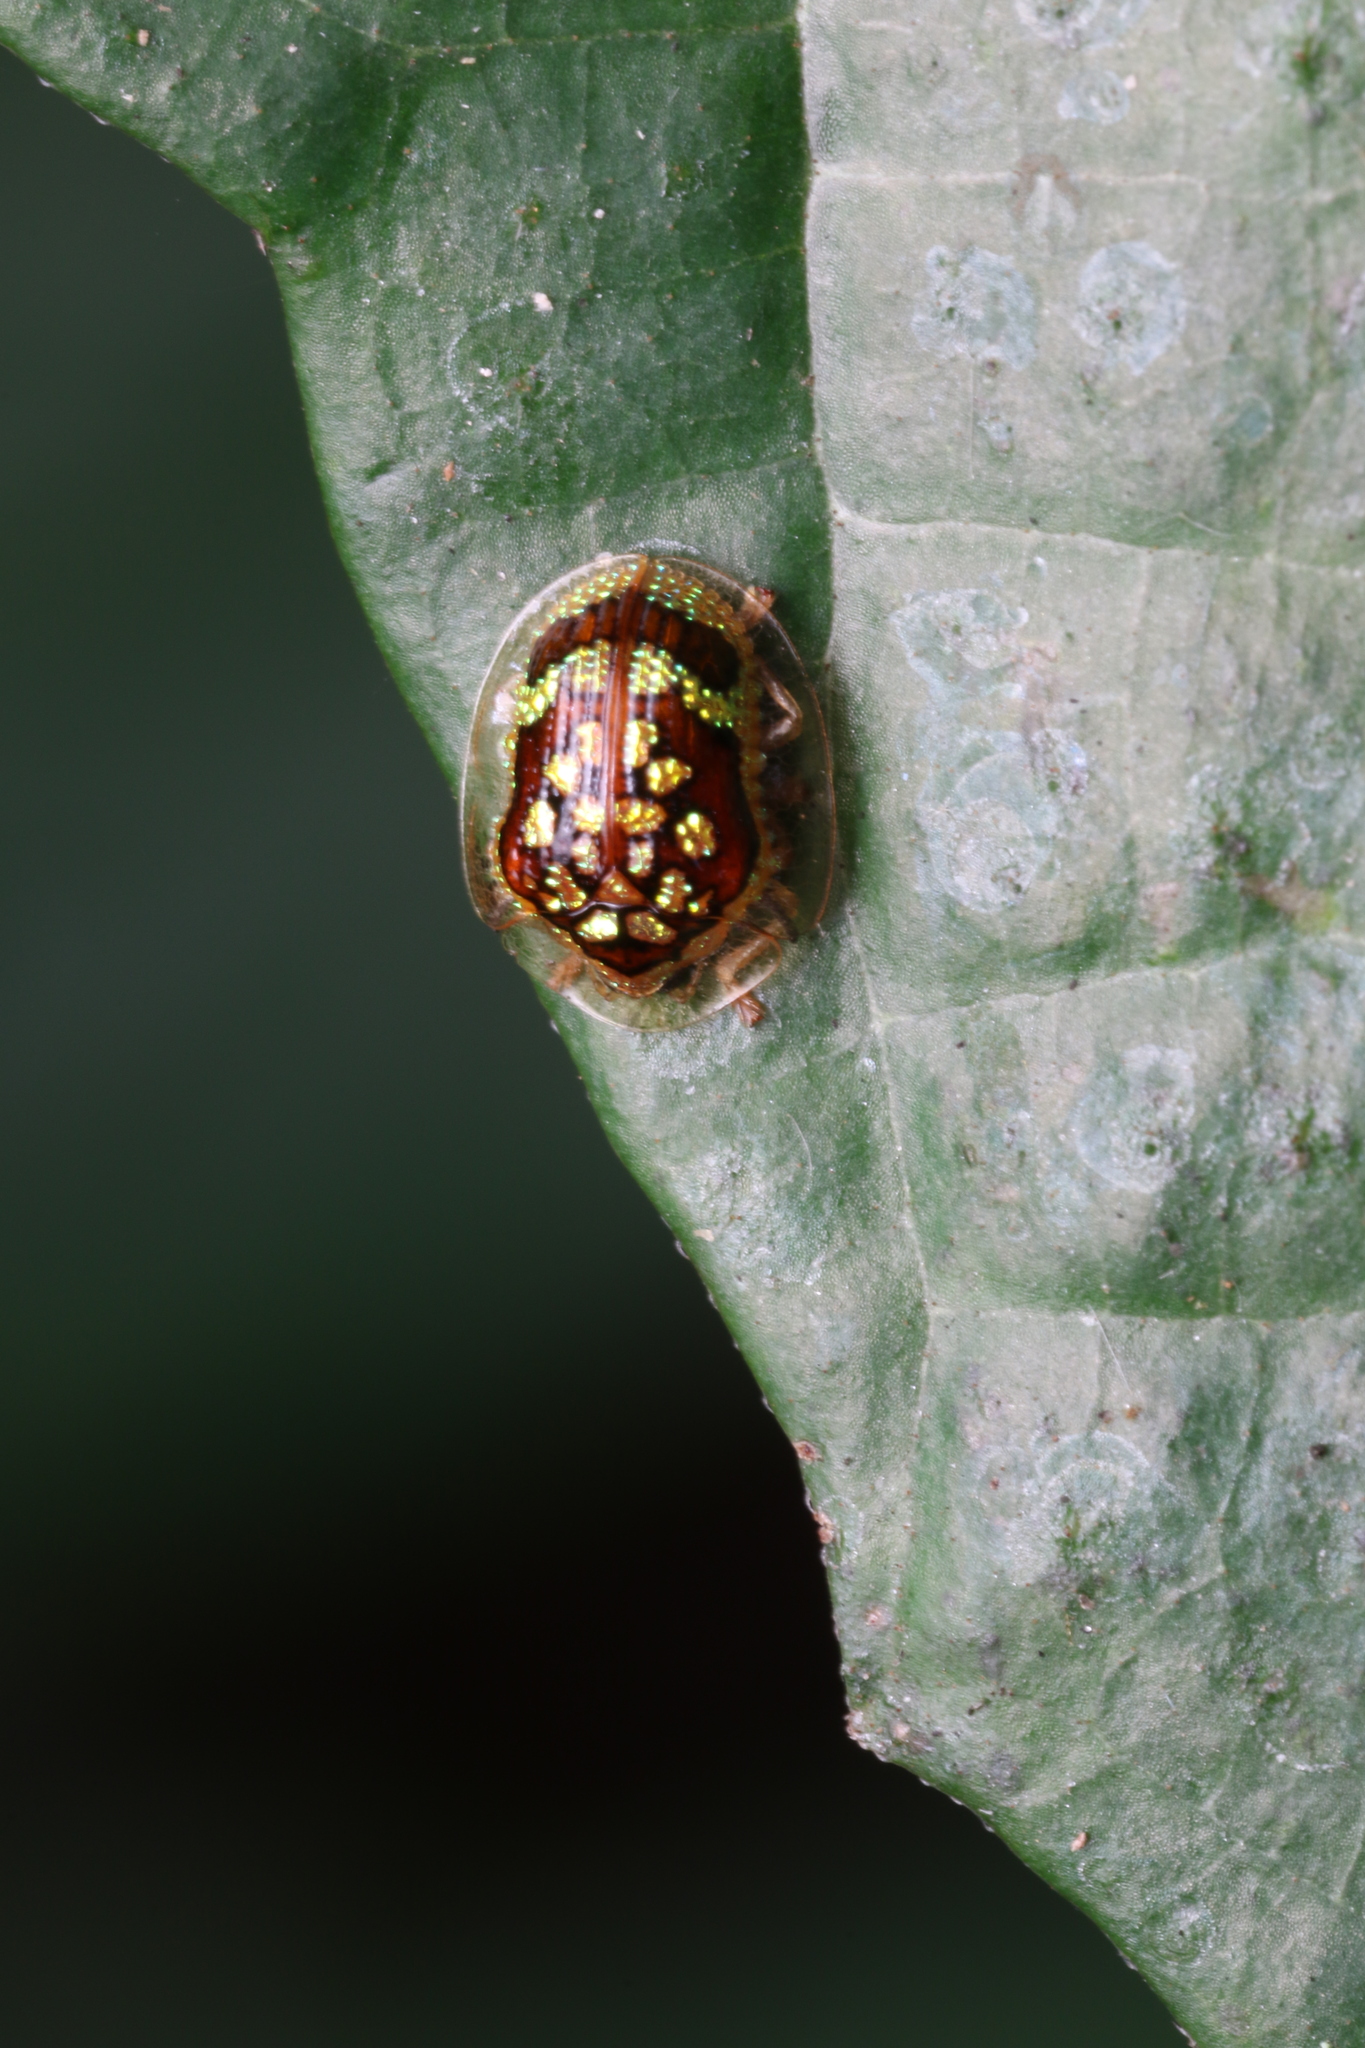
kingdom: Animalia
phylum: Arthropoda
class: Insecta
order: Coleoptera
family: Chrysomelidae
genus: Microctenochira
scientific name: Microctenochira brasiliensis
